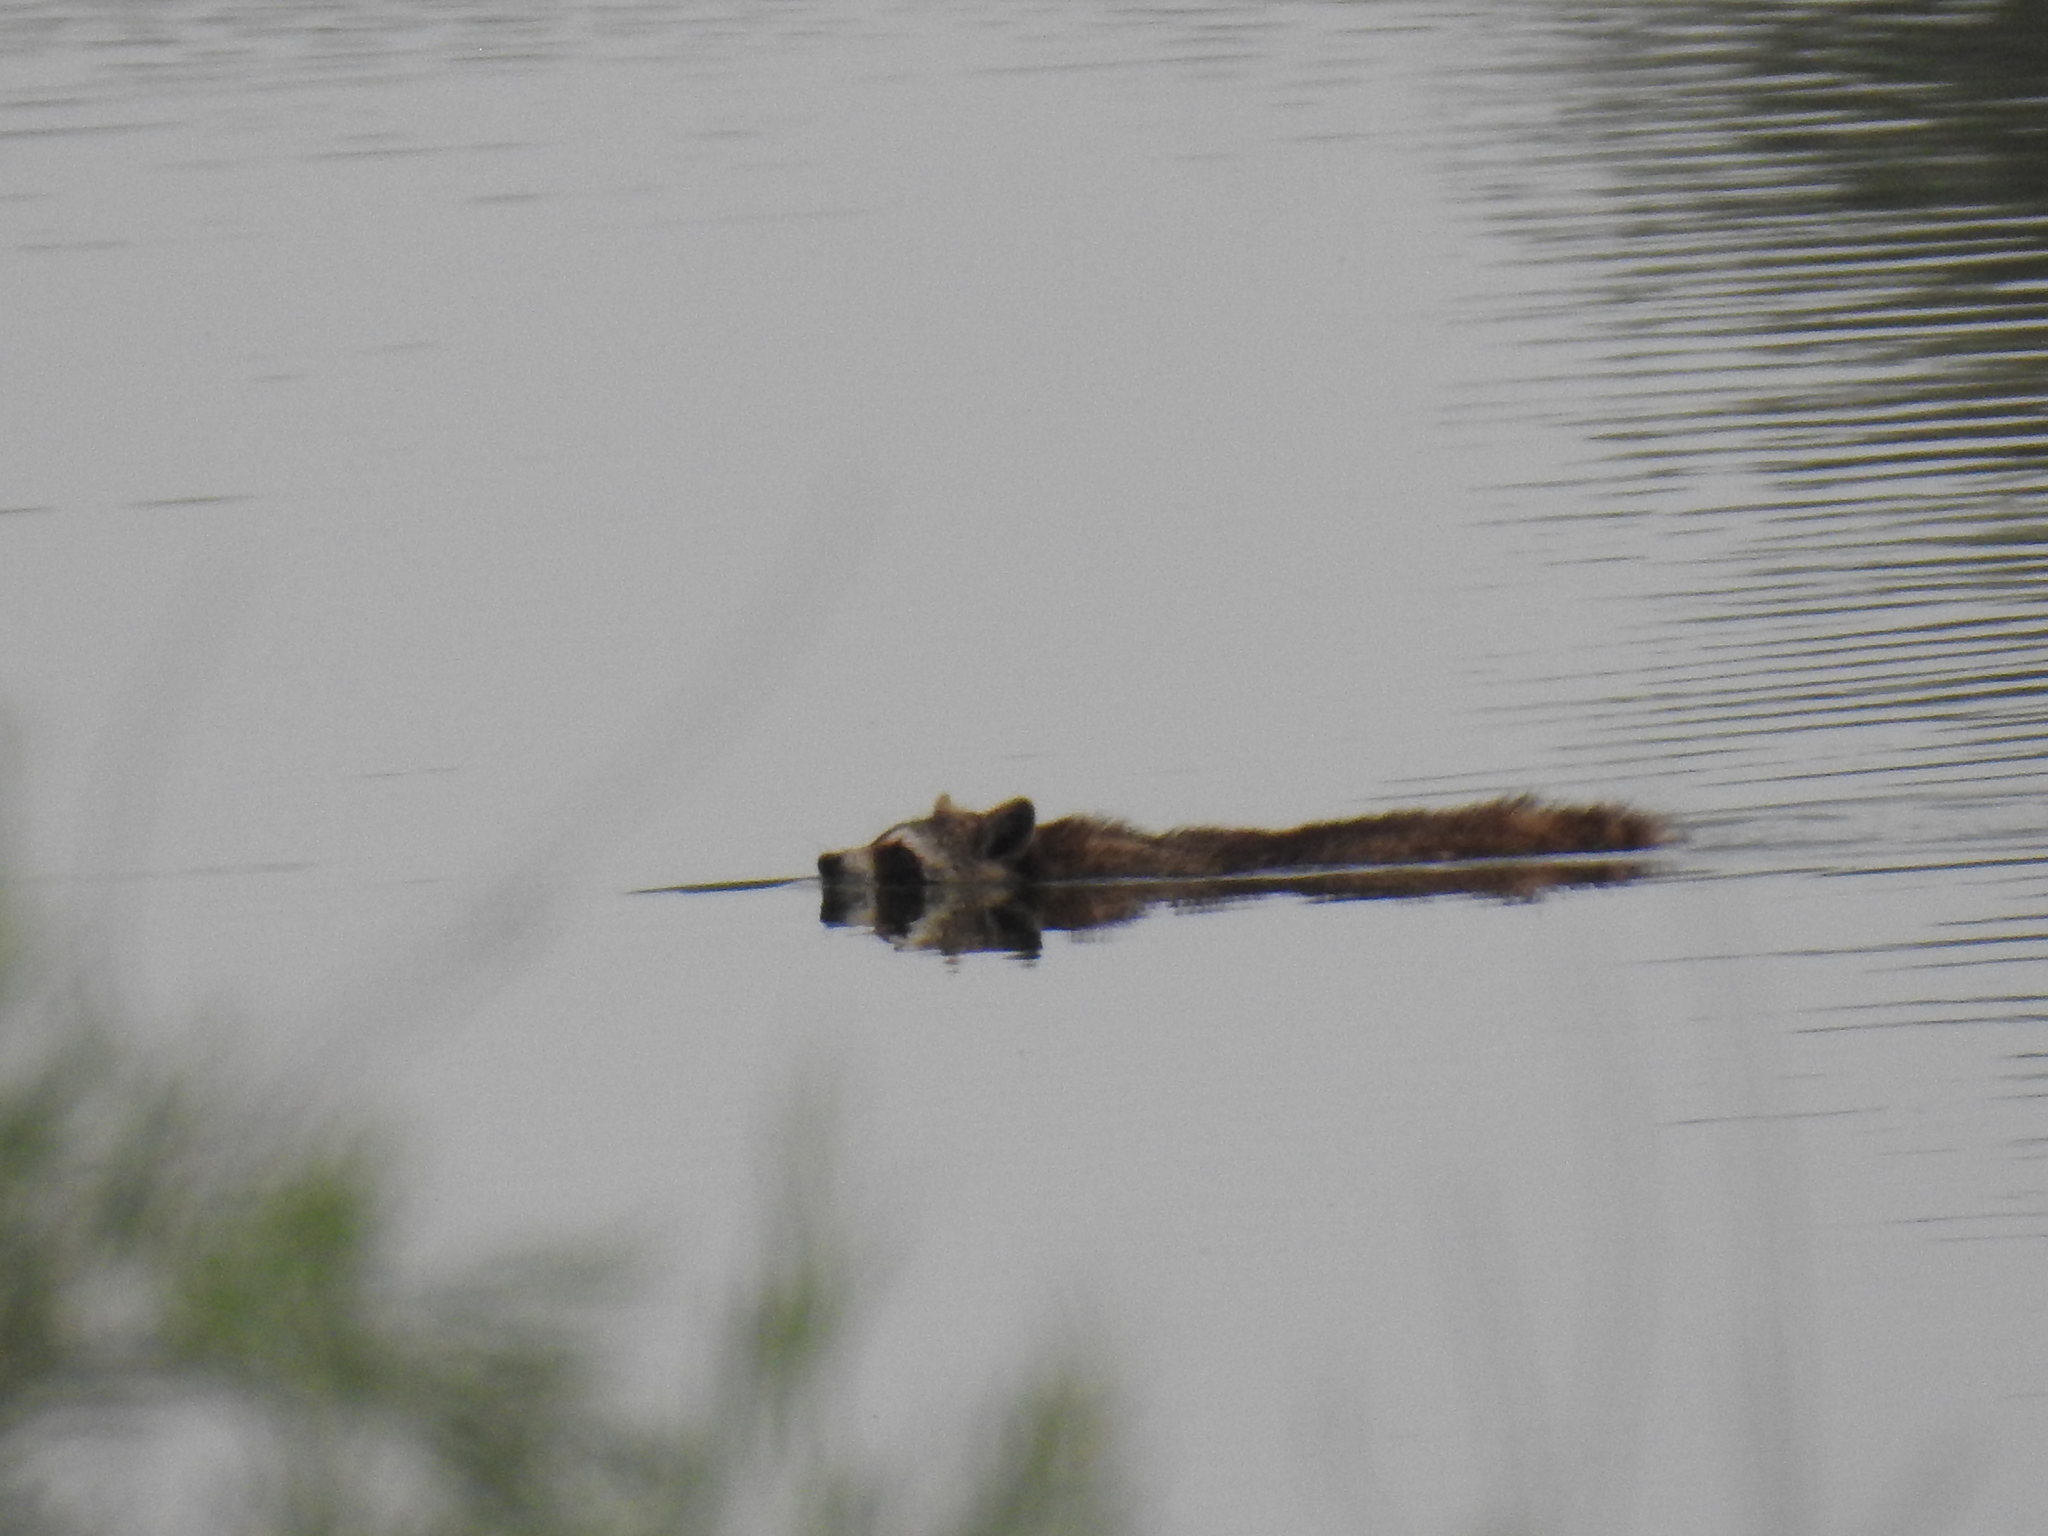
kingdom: Animalia
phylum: Chordata
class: Mammalia
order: Carnivora
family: Procyonidae
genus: Procyon
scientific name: Procyon lotor
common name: Raccoon
